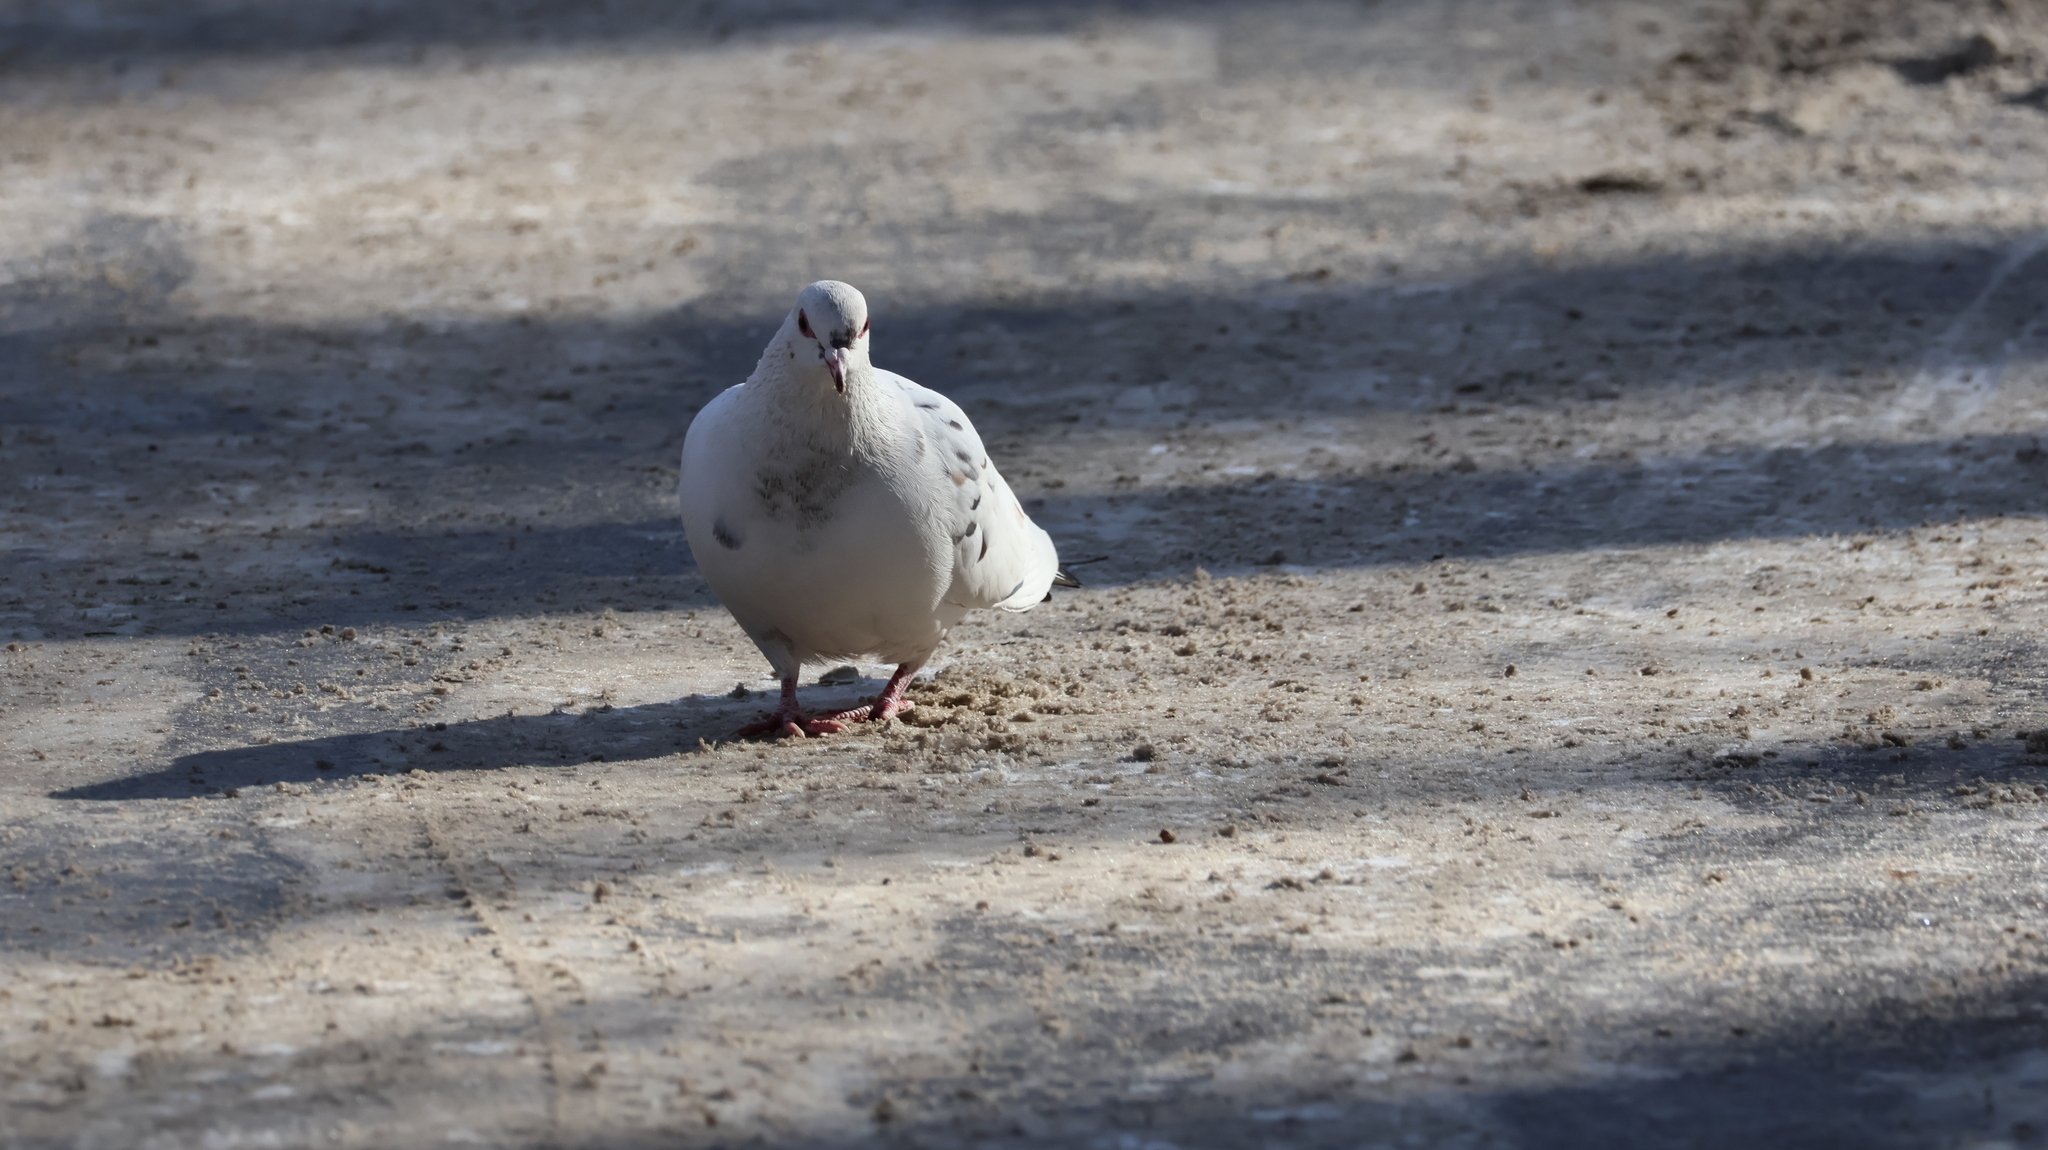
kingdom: Animalia
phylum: Chordata
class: Aves
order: Columbiformes
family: Columbidae
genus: Columba
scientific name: Columba livia
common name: Rock pigeon
